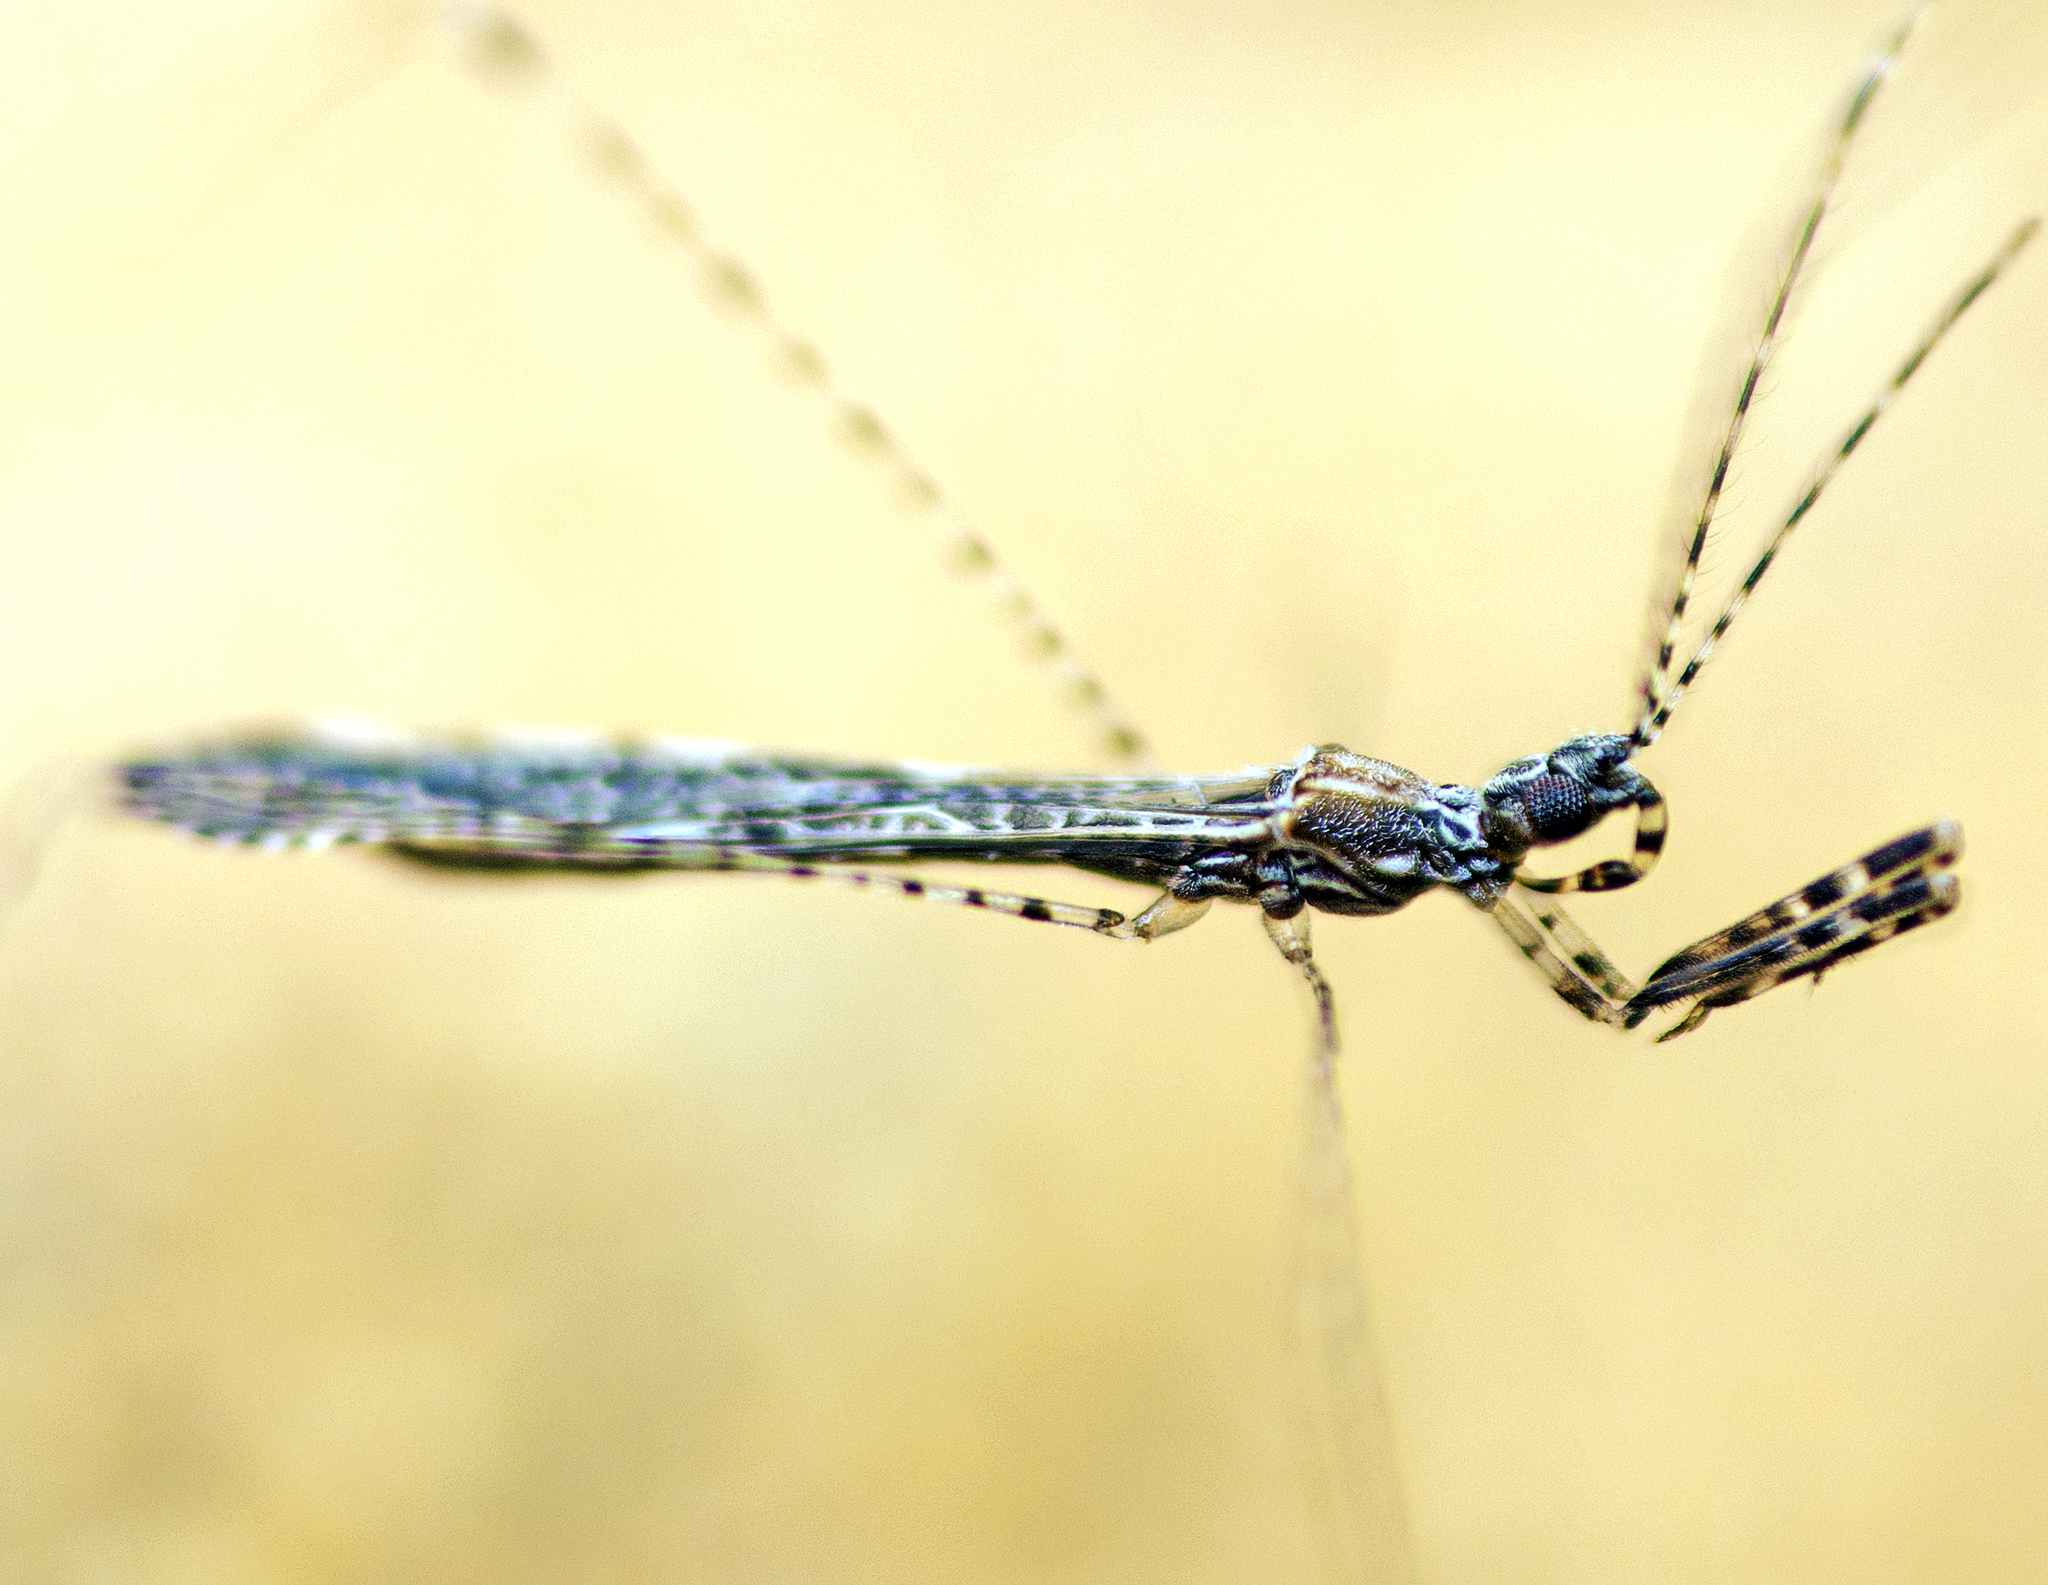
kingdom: Animalia
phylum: Arthropoda
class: Insecta
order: Hemiptera
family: Reduviidae
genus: Empicoris
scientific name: Empicoris rubromaculatus
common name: Thread-legged bug
